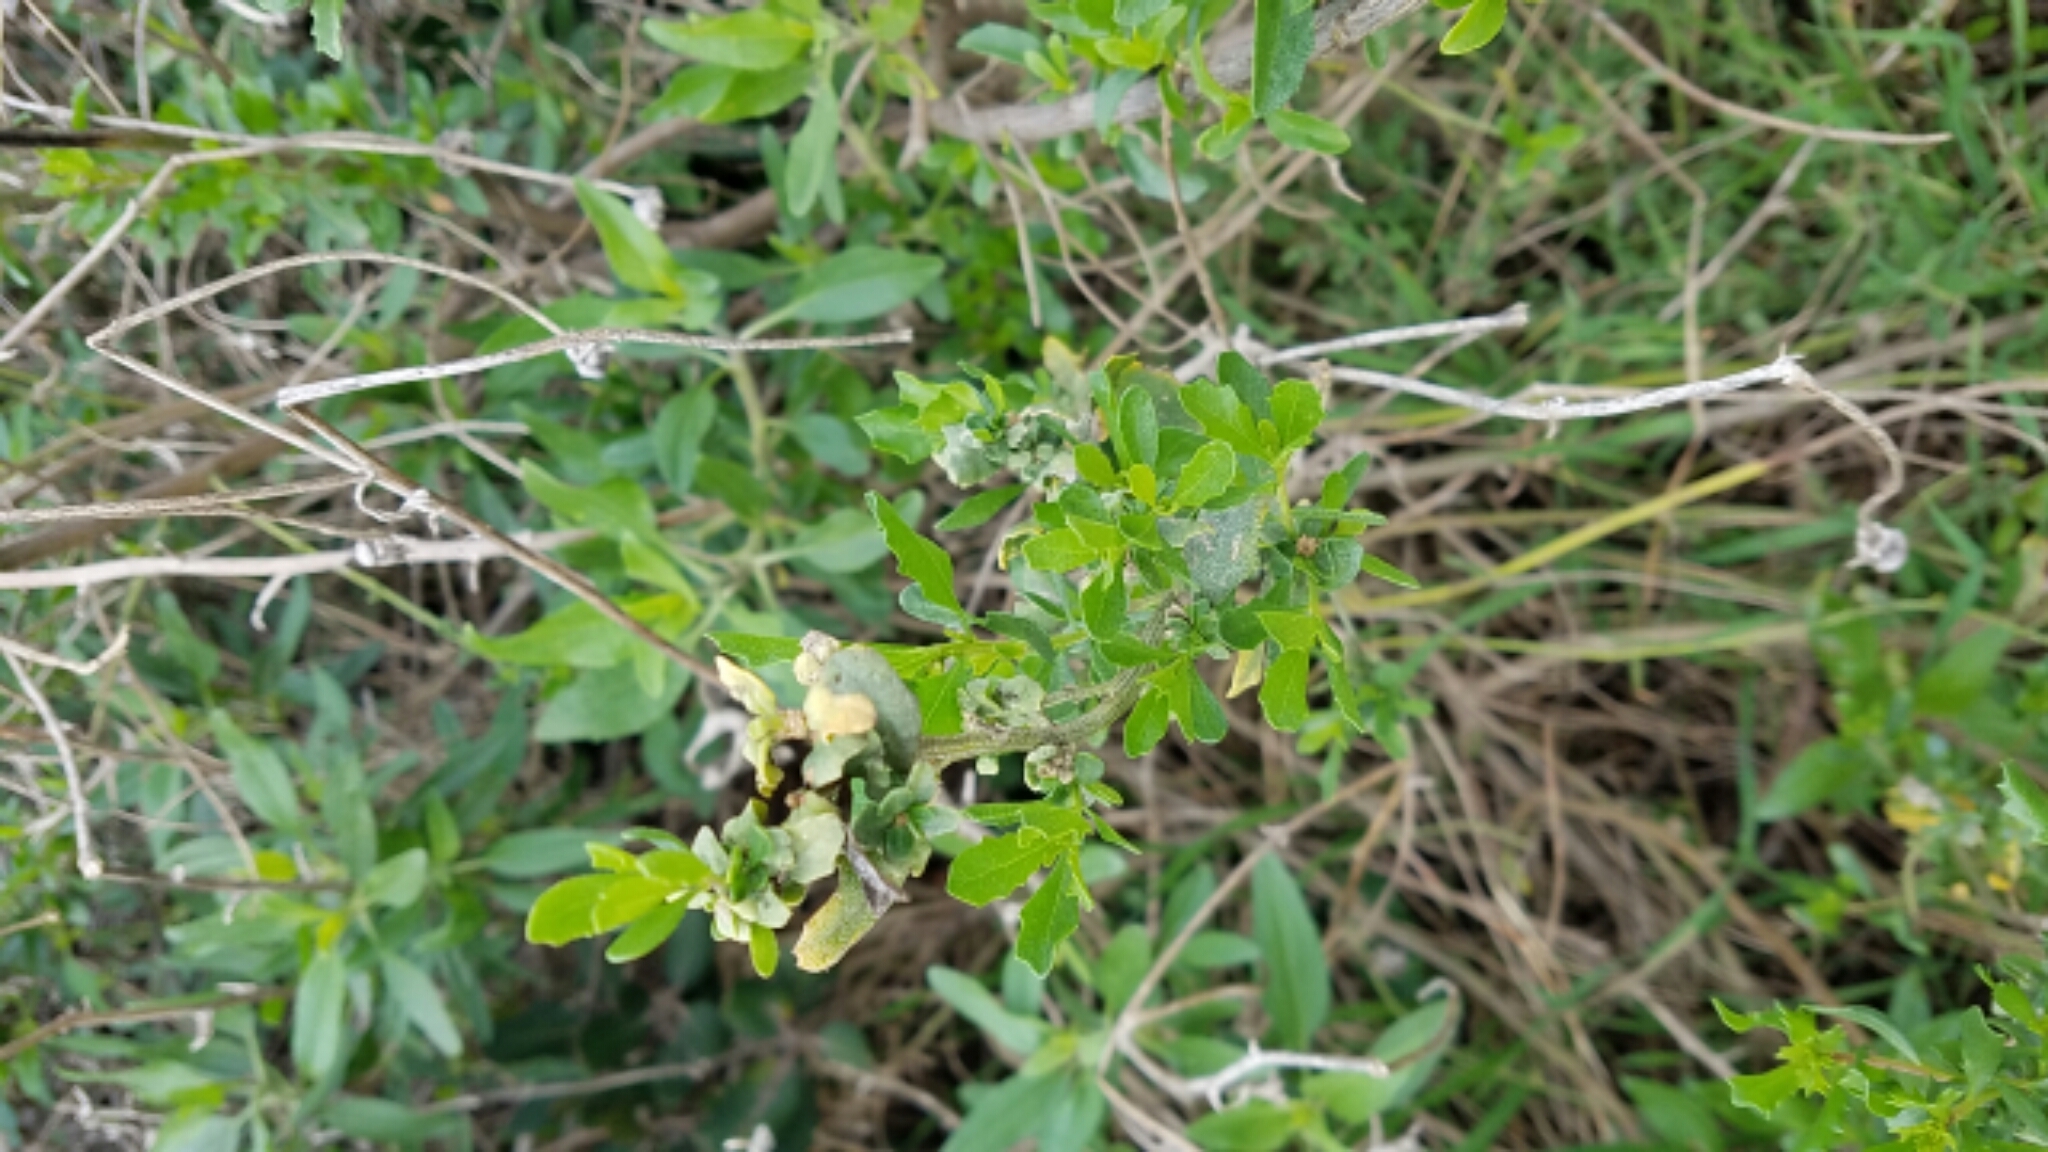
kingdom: Plantae
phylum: Tracheophyta
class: Magnoliopsida
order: Asterales
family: Asteraceae
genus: Baccharis
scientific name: Baccharis pilularis
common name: Coyotebrush
